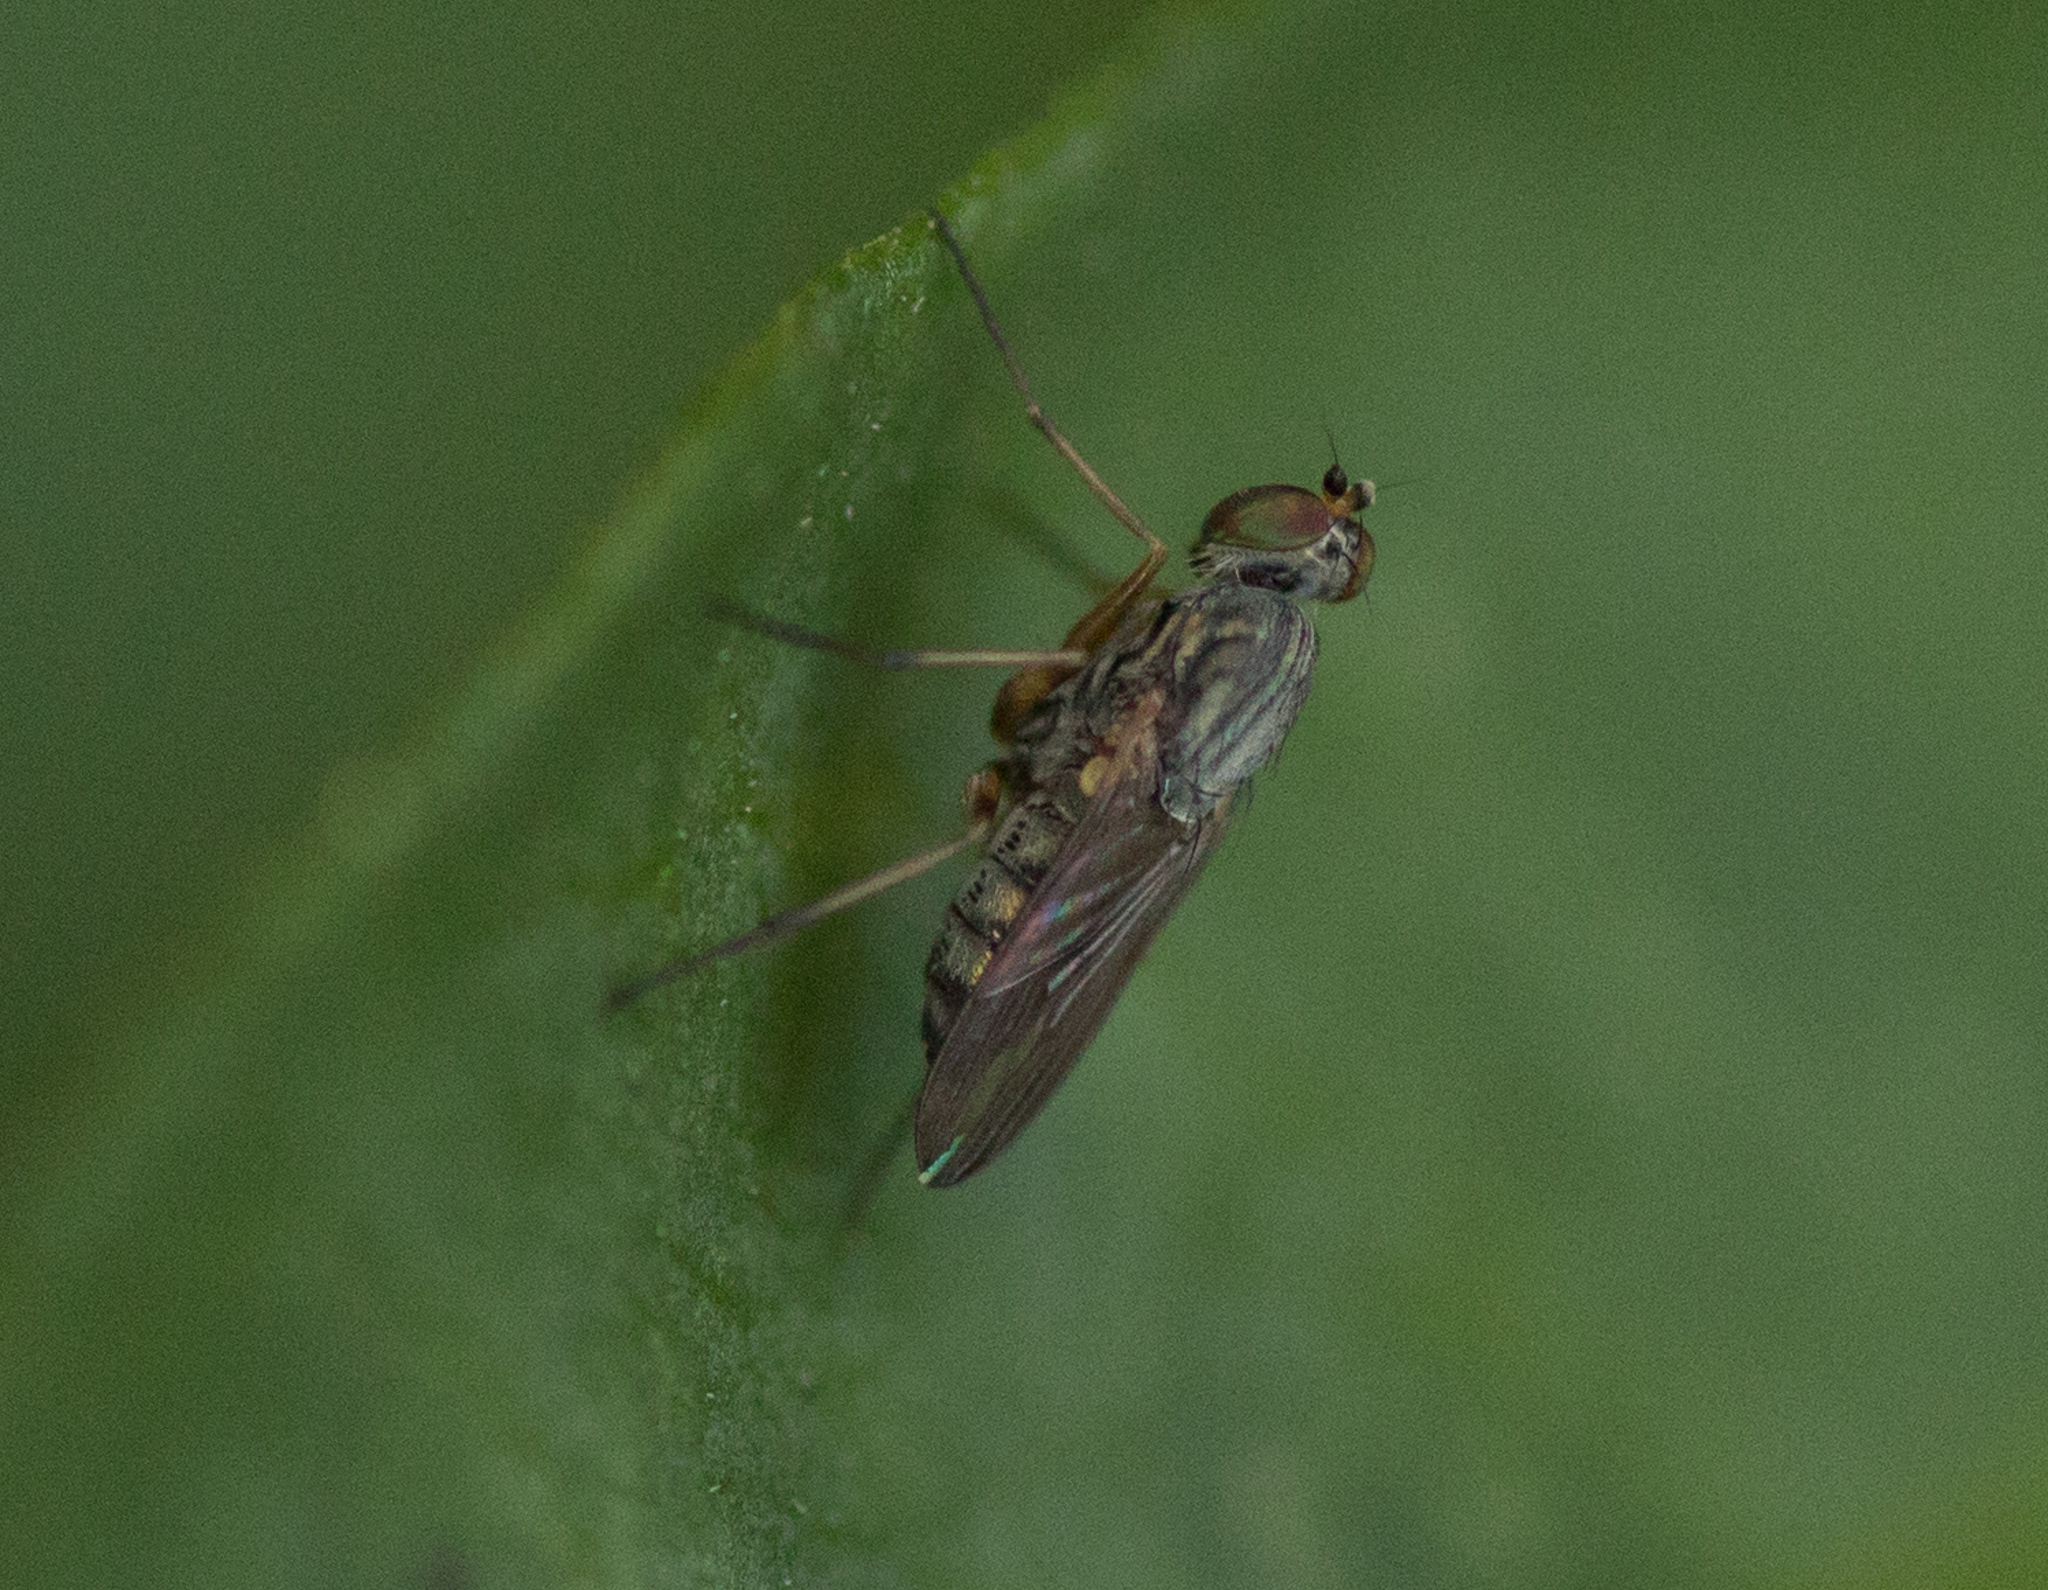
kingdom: Animalia
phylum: Arthropoda
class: Insecta
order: Diptera
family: Dolichopodidae
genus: Coeloglutus
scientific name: Coeloglutus concavus
